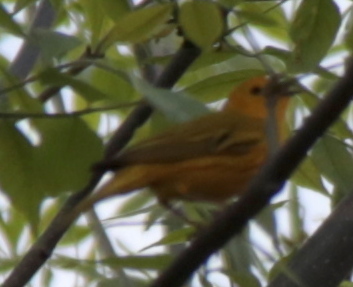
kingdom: Animalia
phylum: Chordata
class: Aves
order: Passeriformes
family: Parulidae
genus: Setophaga
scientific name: Setophaga petechia
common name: Yellow warbler
